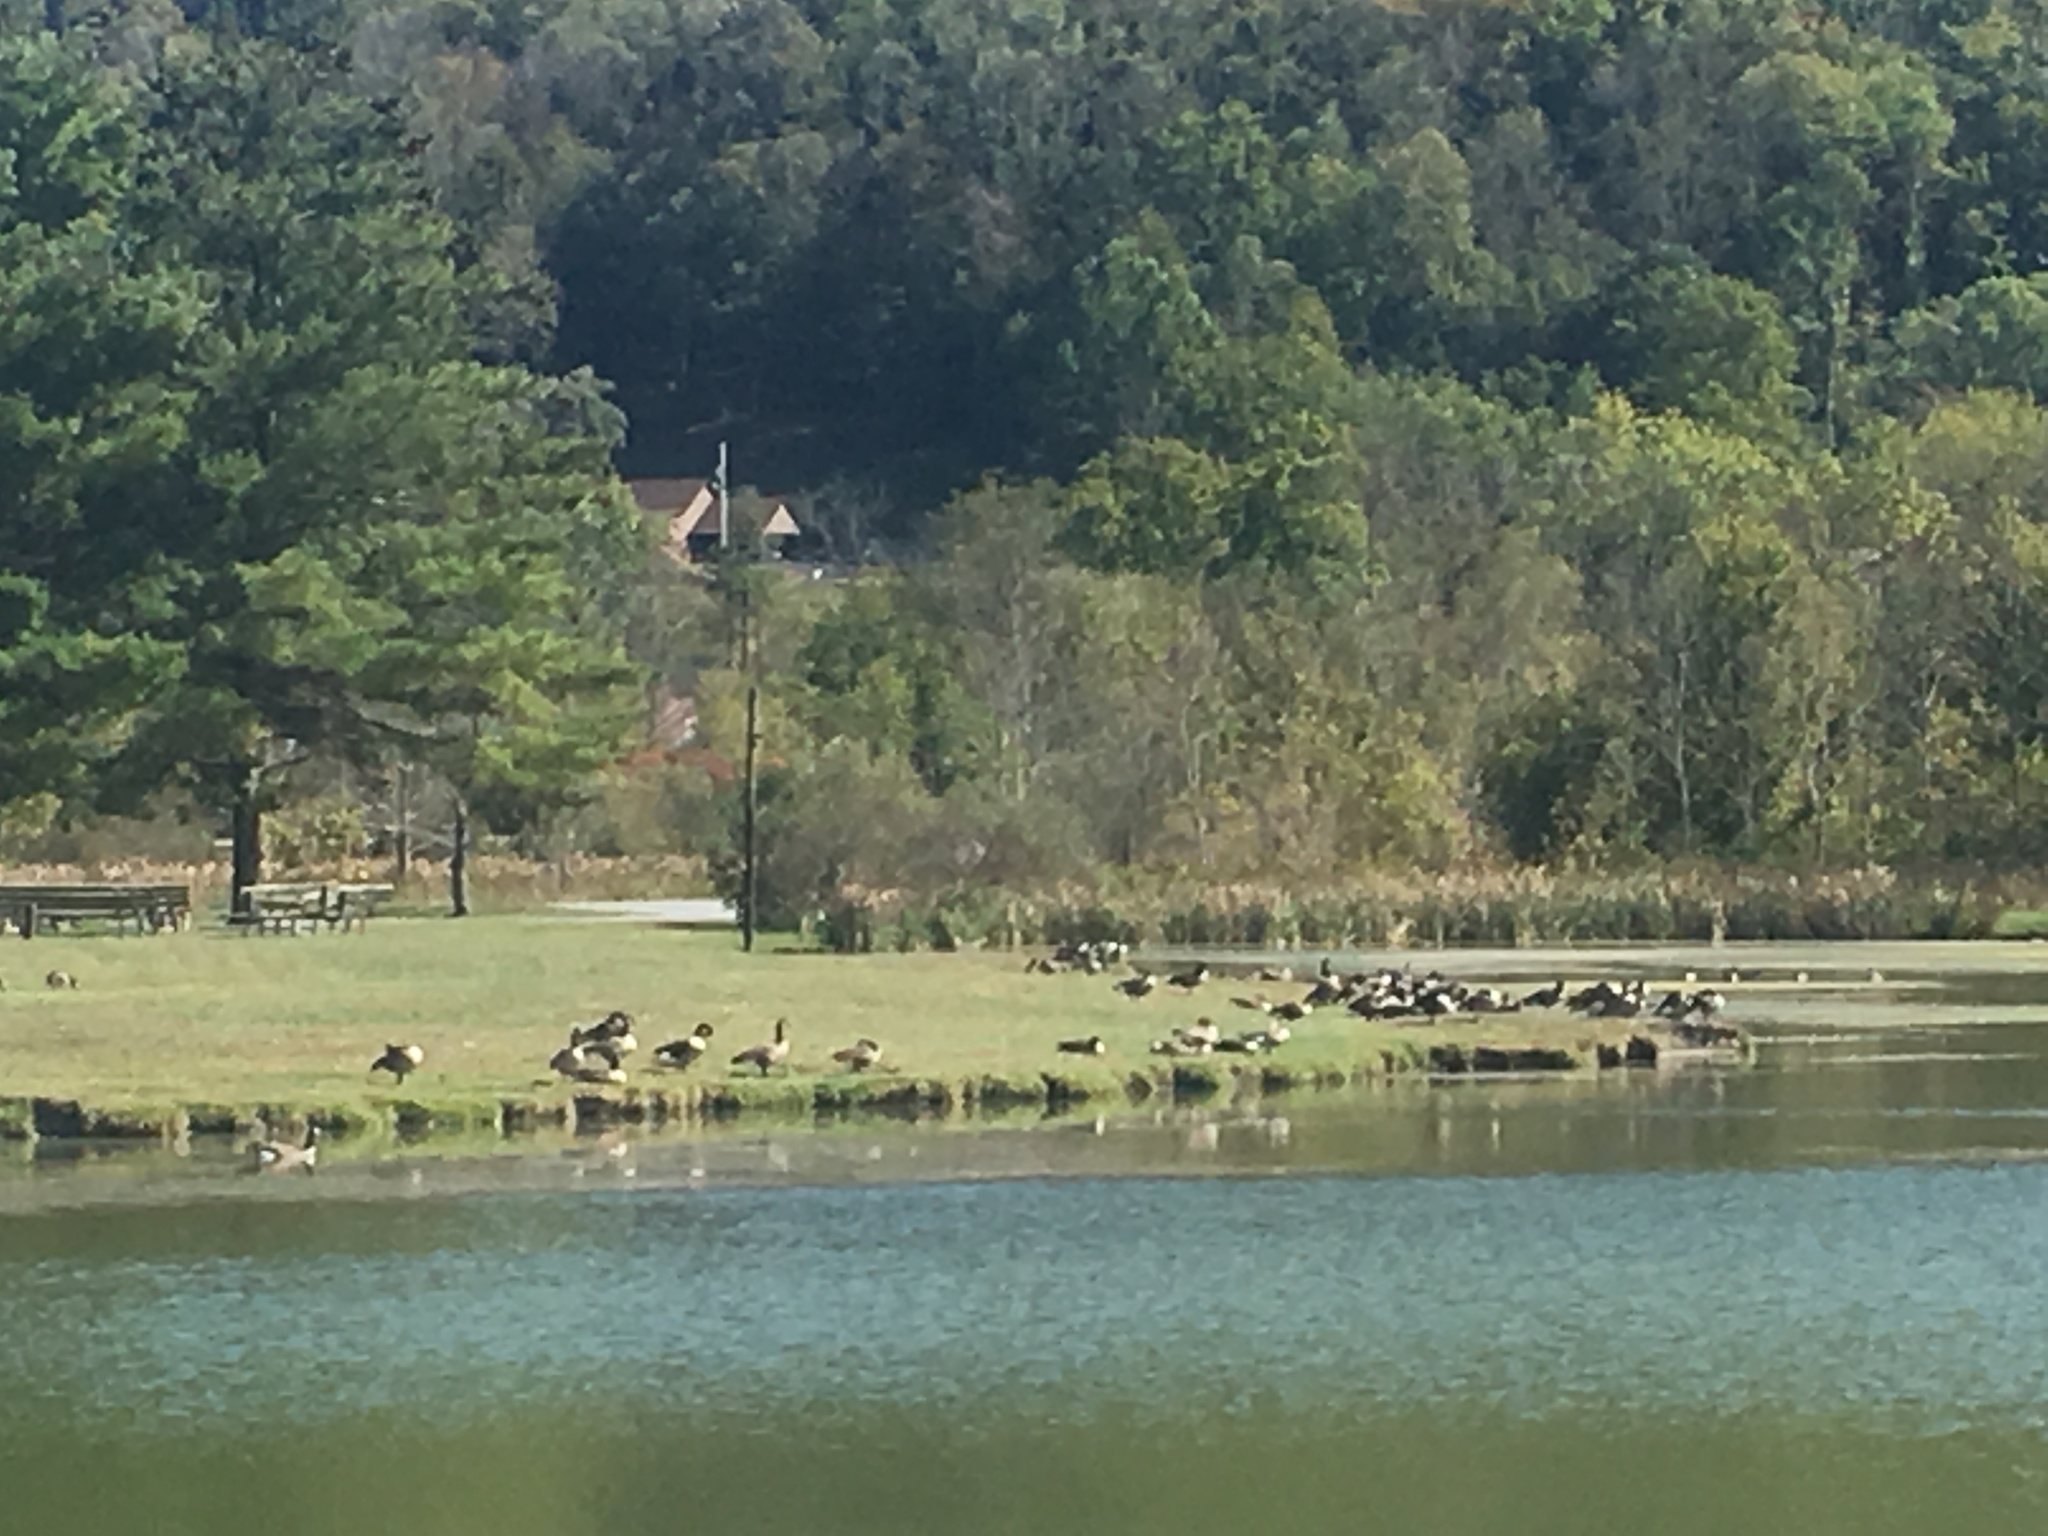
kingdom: Animalia
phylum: Chordata
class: Aves
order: Anseriformes
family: Anatidae
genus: Branta
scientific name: Branta canadensis
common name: Canada goose
